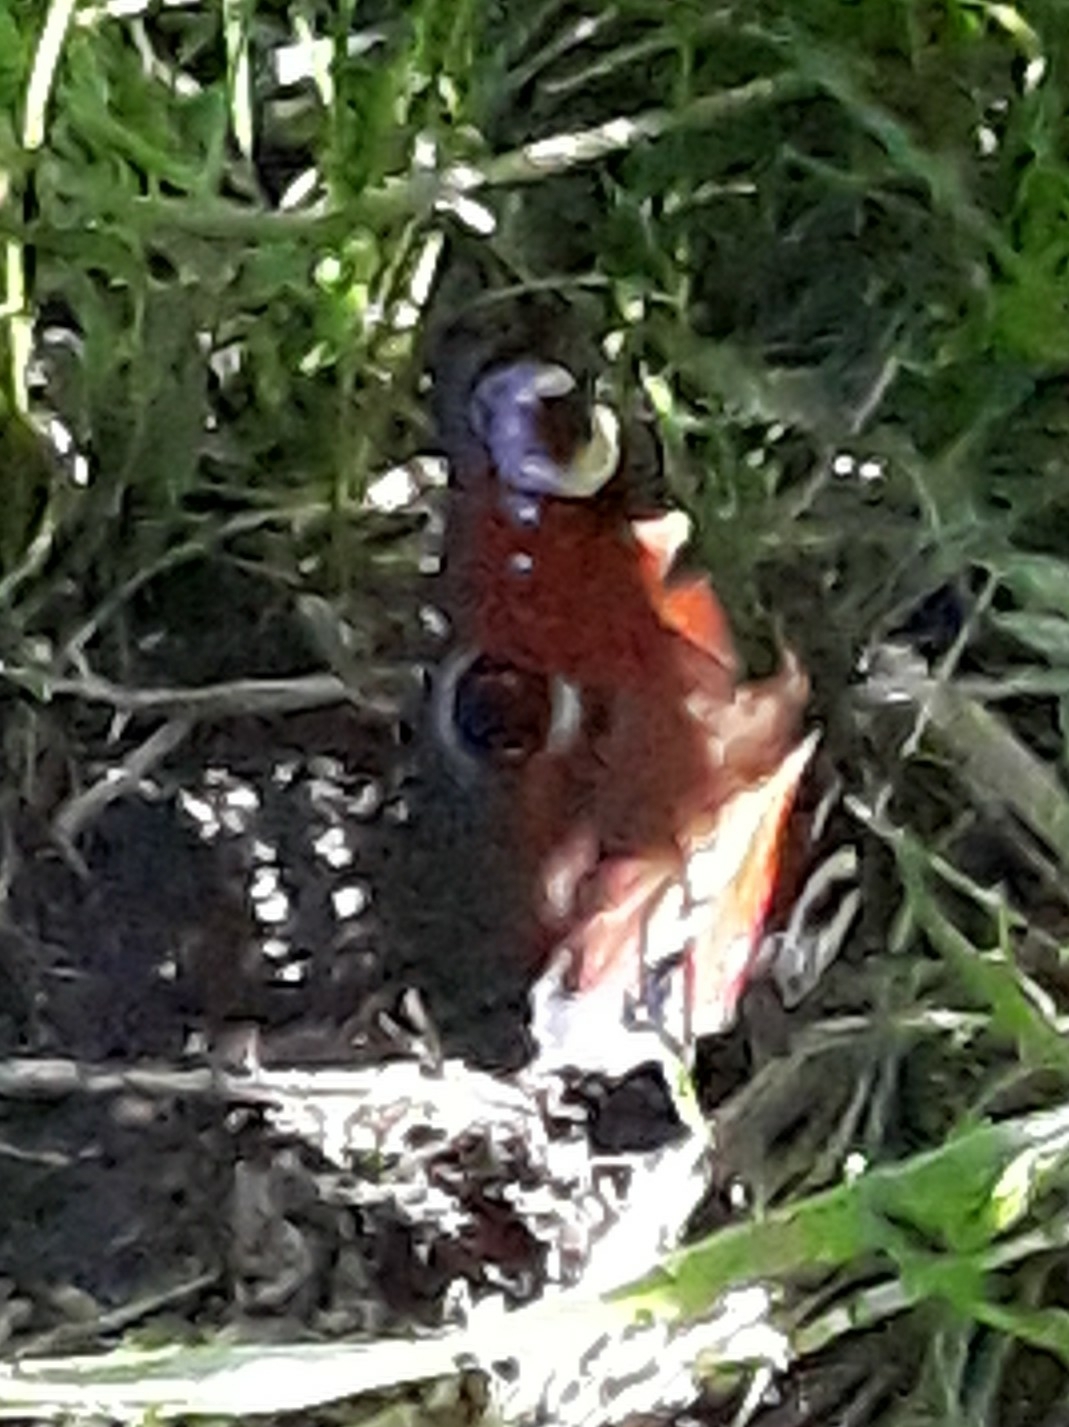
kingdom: Animalia
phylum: Arthropoda
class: Insecta
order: Lepidoptera
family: Nymphalidae
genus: Aglais
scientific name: Aglais io
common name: Peacock
